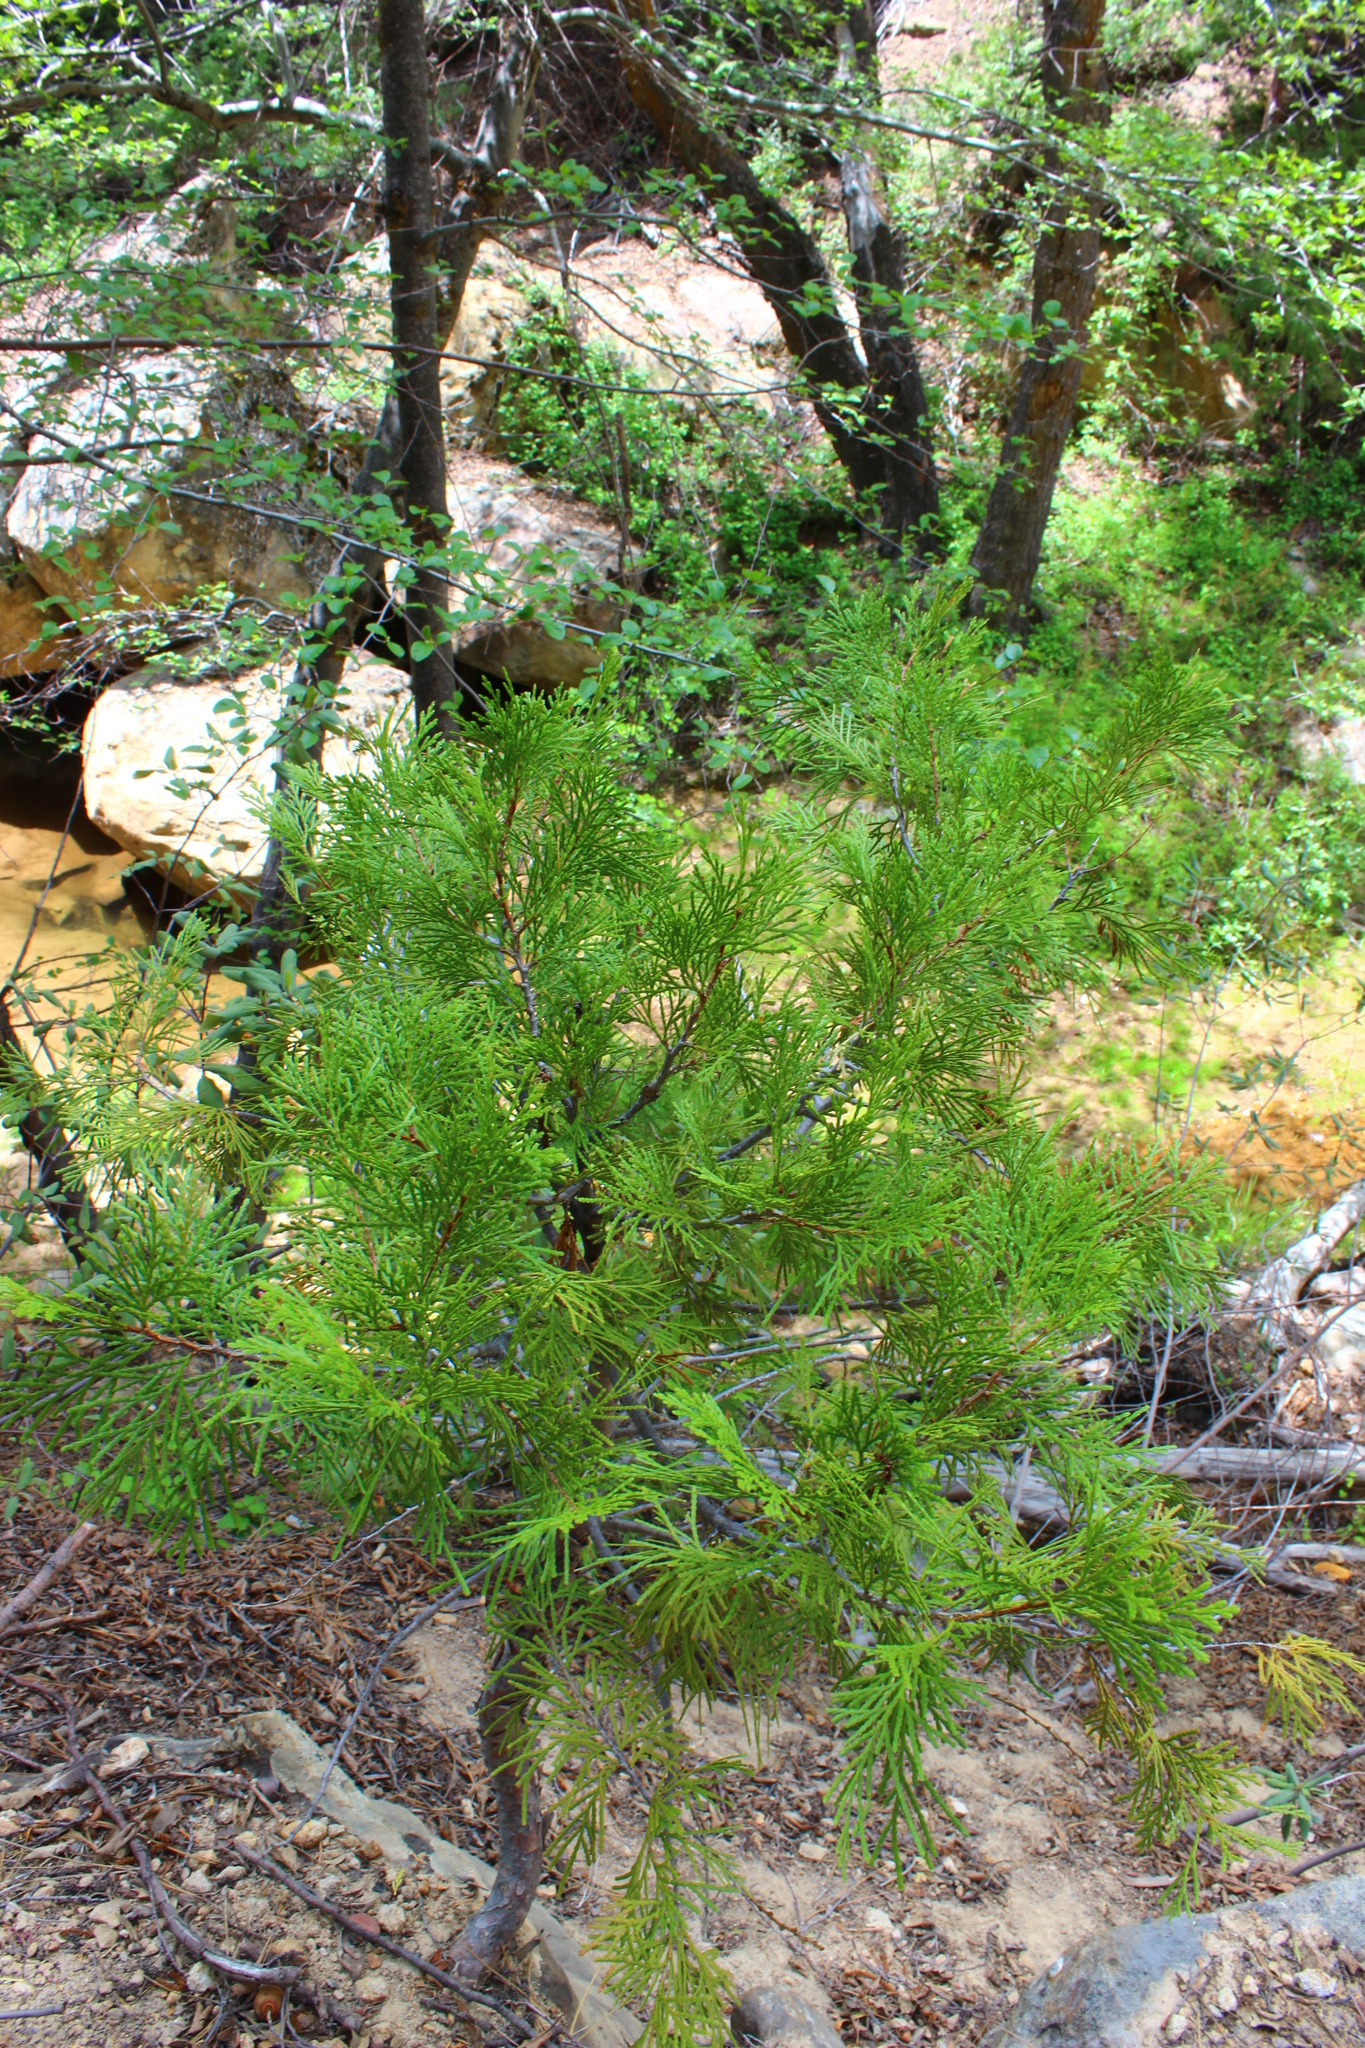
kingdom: Plantae
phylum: Tracheophyta
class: Pinopsida
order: Pinales
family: Cupressaceae
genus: Calocedrus
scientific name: Calocedrus decurrens
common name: Californian incense-cedar
